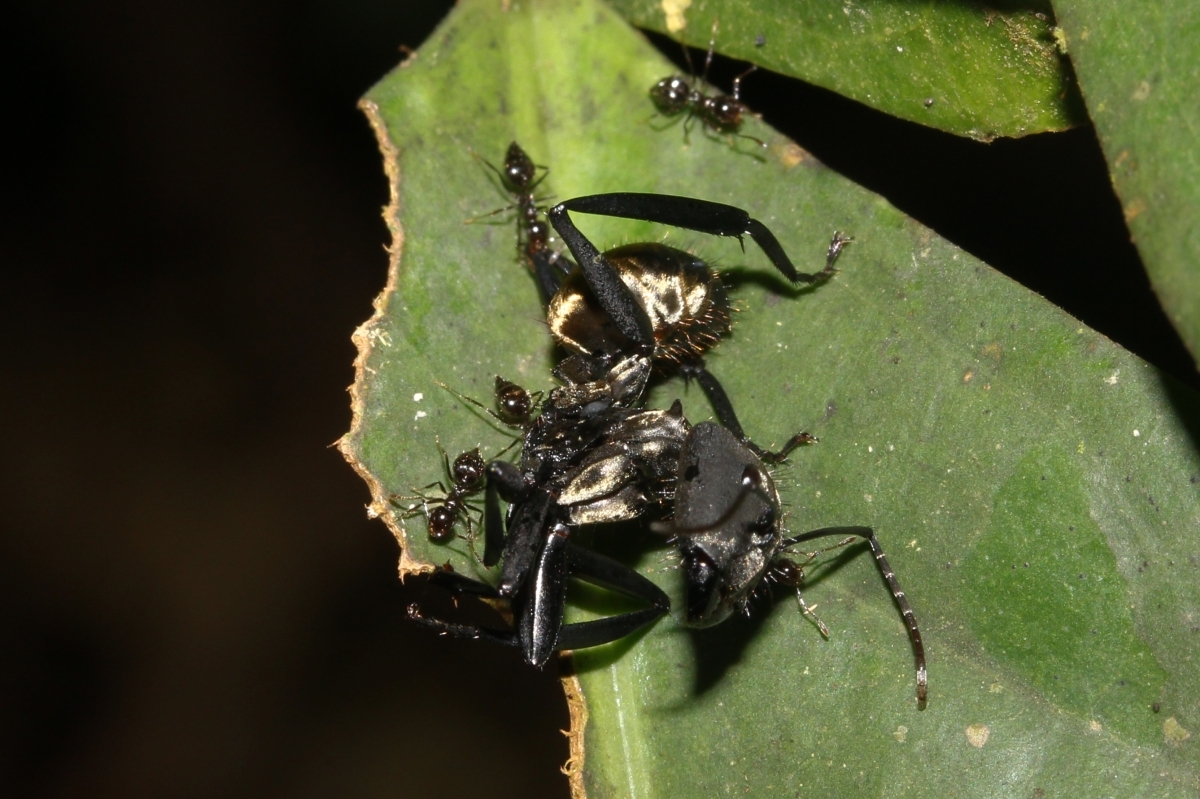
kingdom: Animalia
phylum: Arthropoda
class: Insecta
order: Hymenoptera
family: Formicidae
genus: Orthocrema
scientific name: Orthocrema
